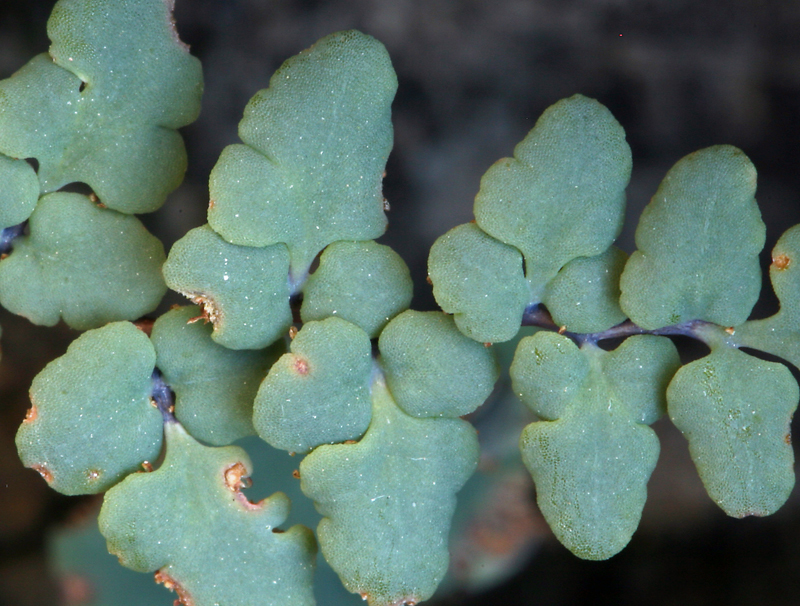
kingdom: Plantae
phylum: Tracheophyta
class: Polypodiopsida
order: Polypodiales
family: Pteridaceae
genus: Argyrochosma
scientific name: Argyrochosma jonesii
